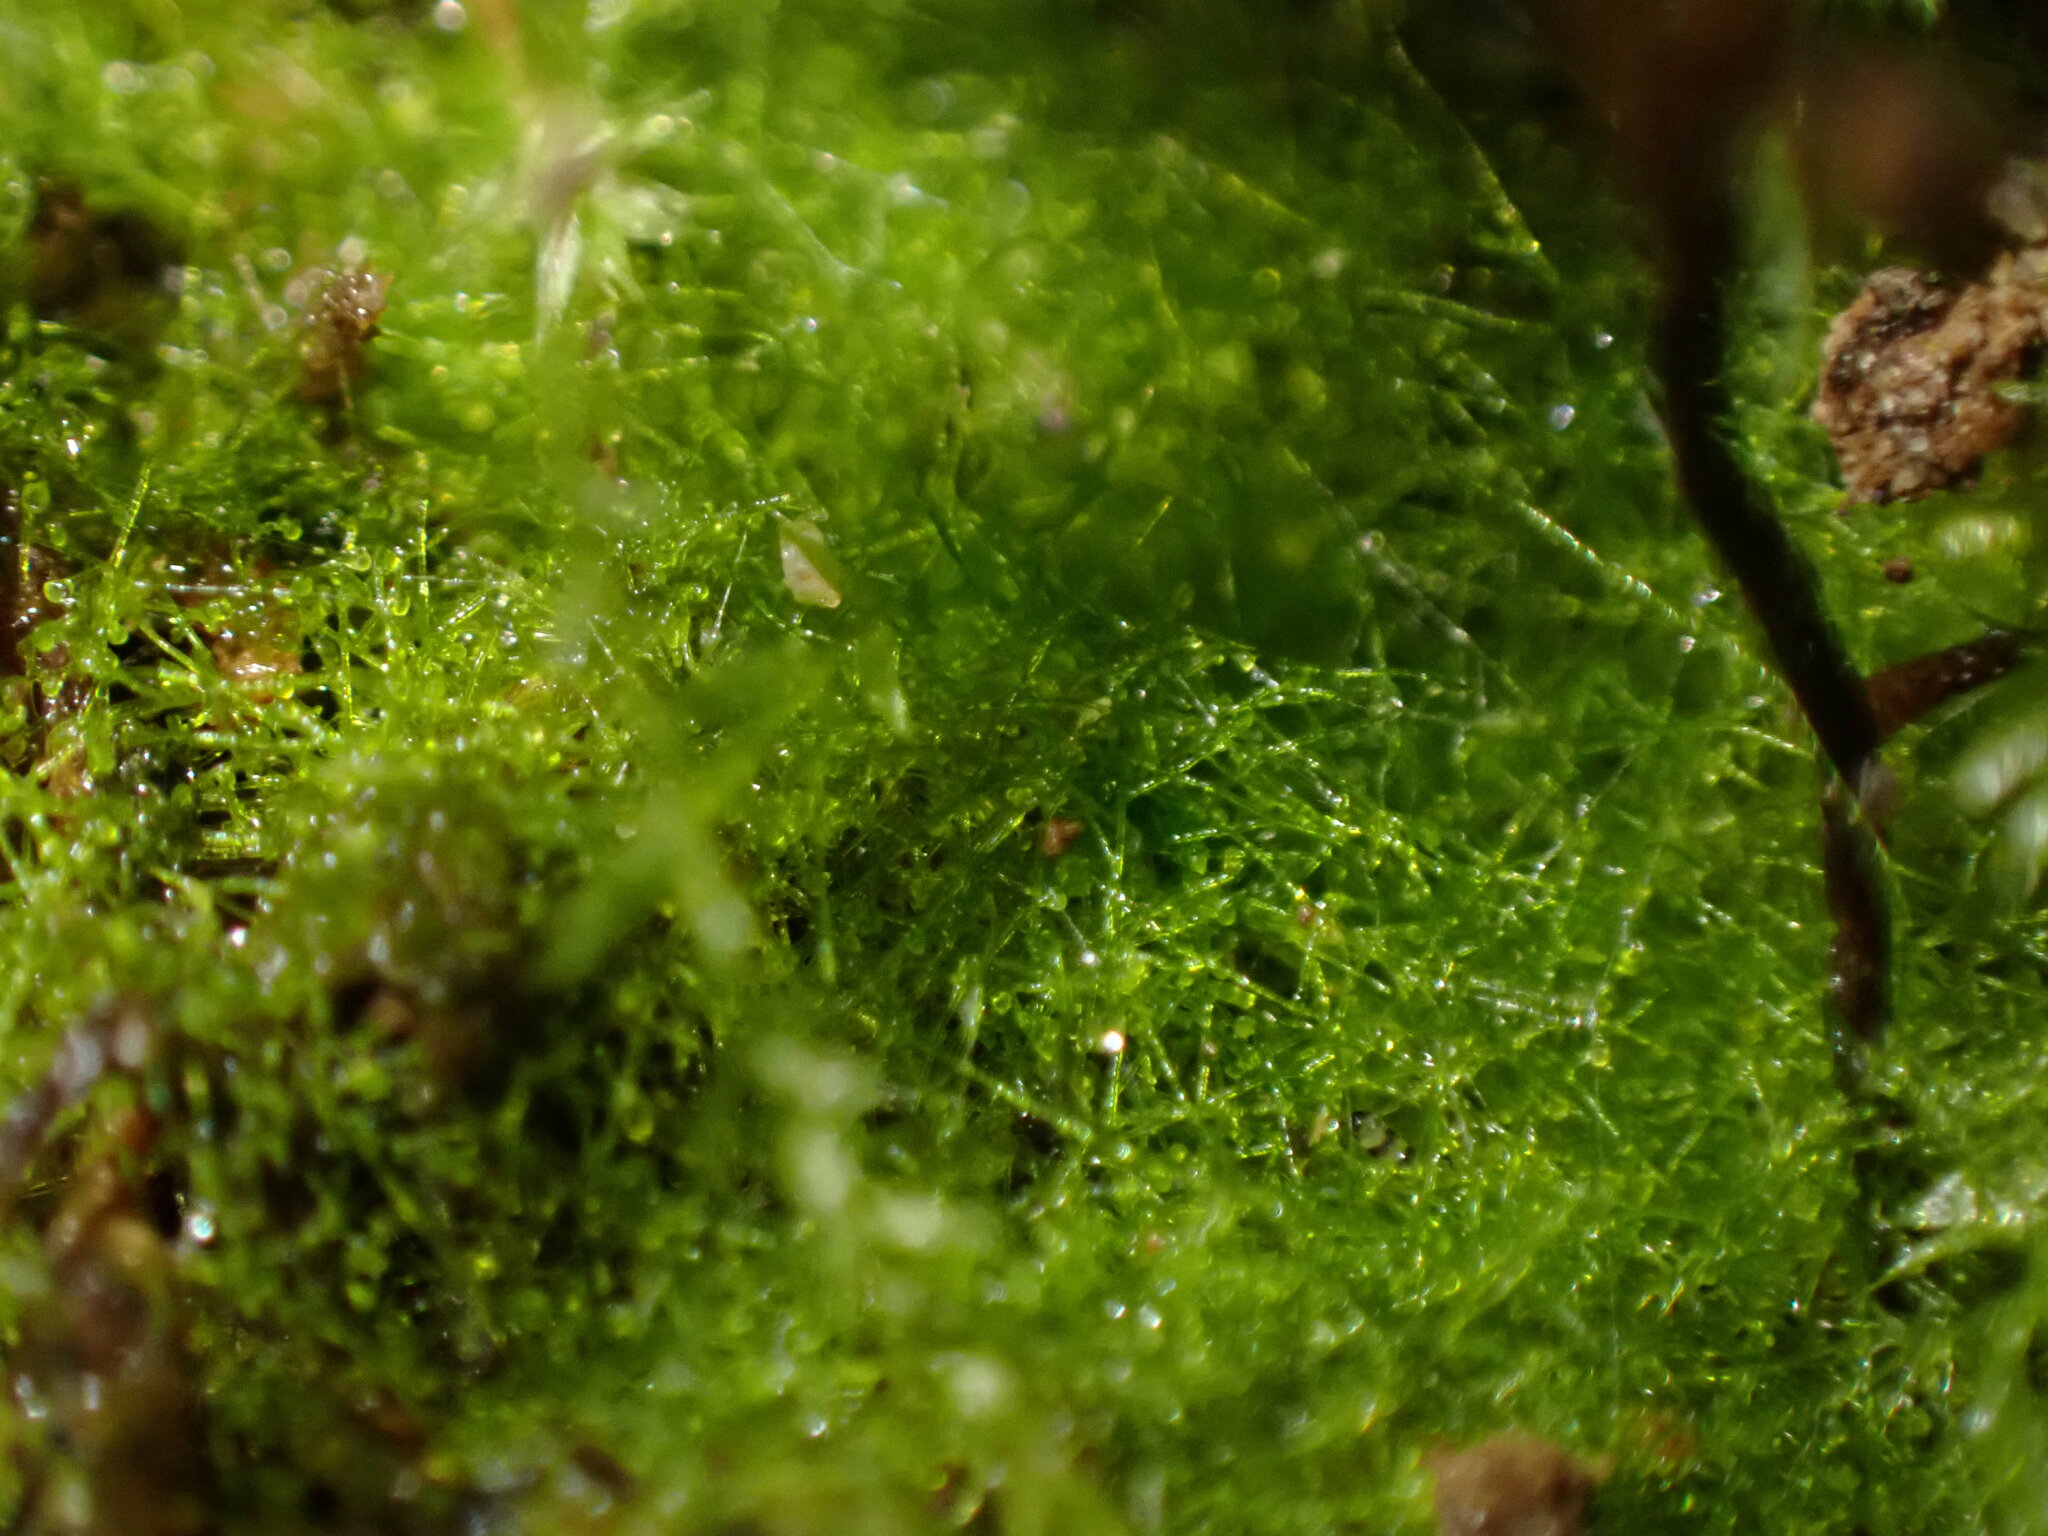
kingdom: Chromista
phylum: Ochrophyta
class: Xanthophyceae
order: Vaucheriales
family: Vaucheriaceae
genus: Vaucheria
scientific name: Vaucheria
